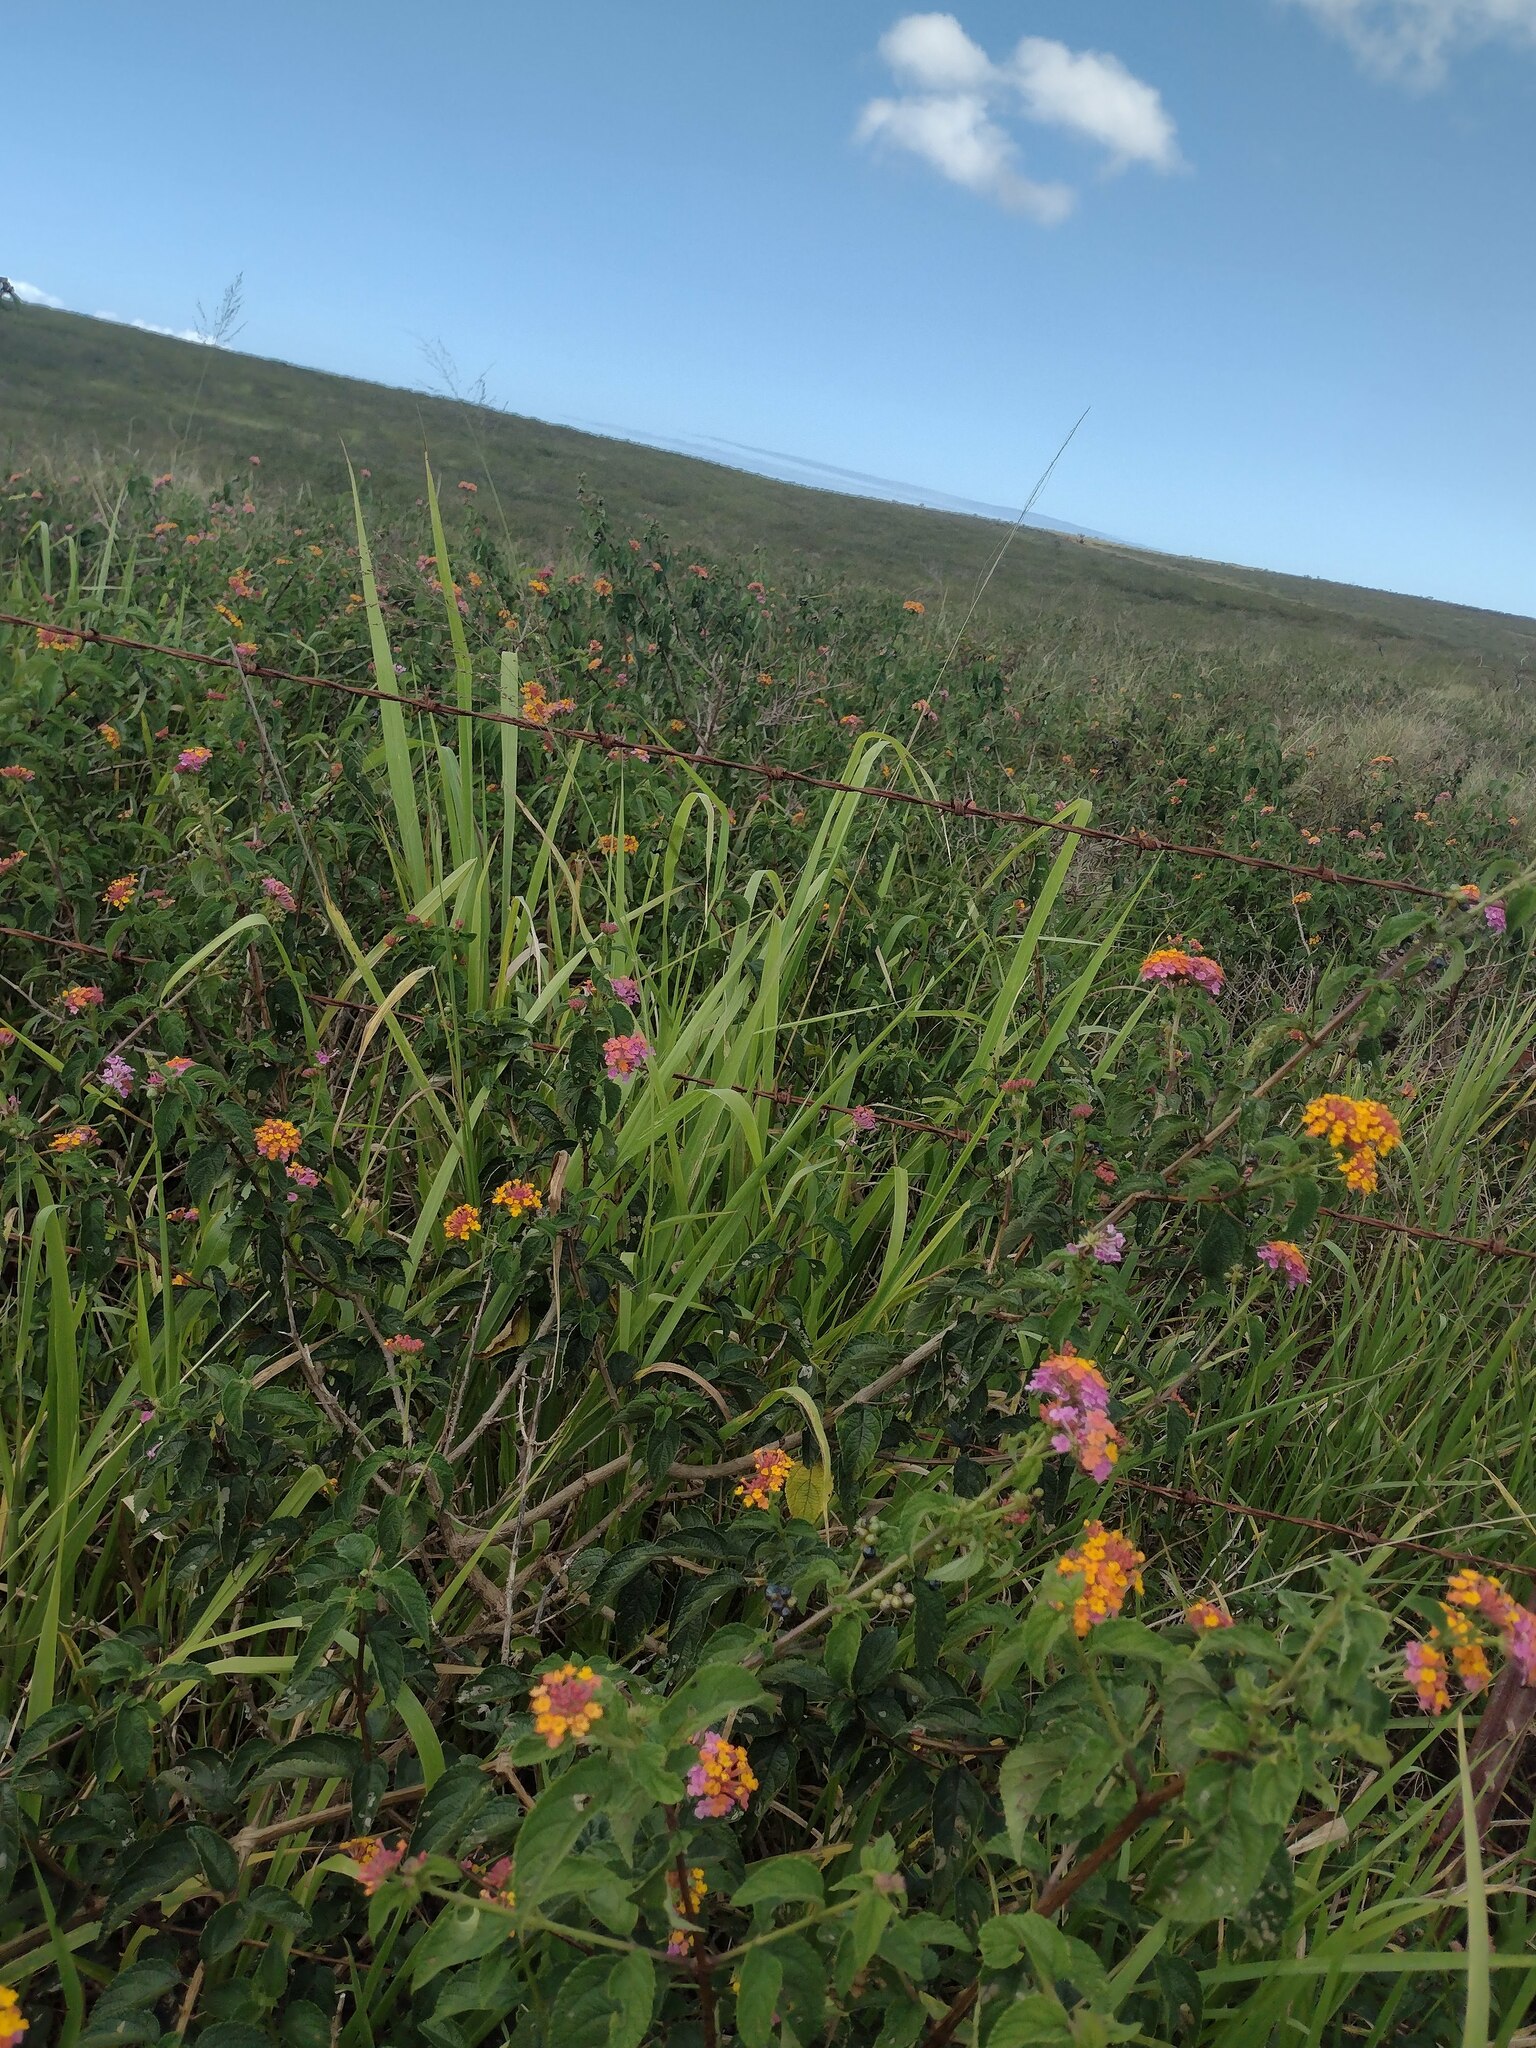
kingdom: Plantae
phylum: Tracheophyta
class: Liliopsida
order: Poales
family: Poaceae
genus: Megathyrsus
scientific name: Megathyrsus maximus
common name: Guineagrass
